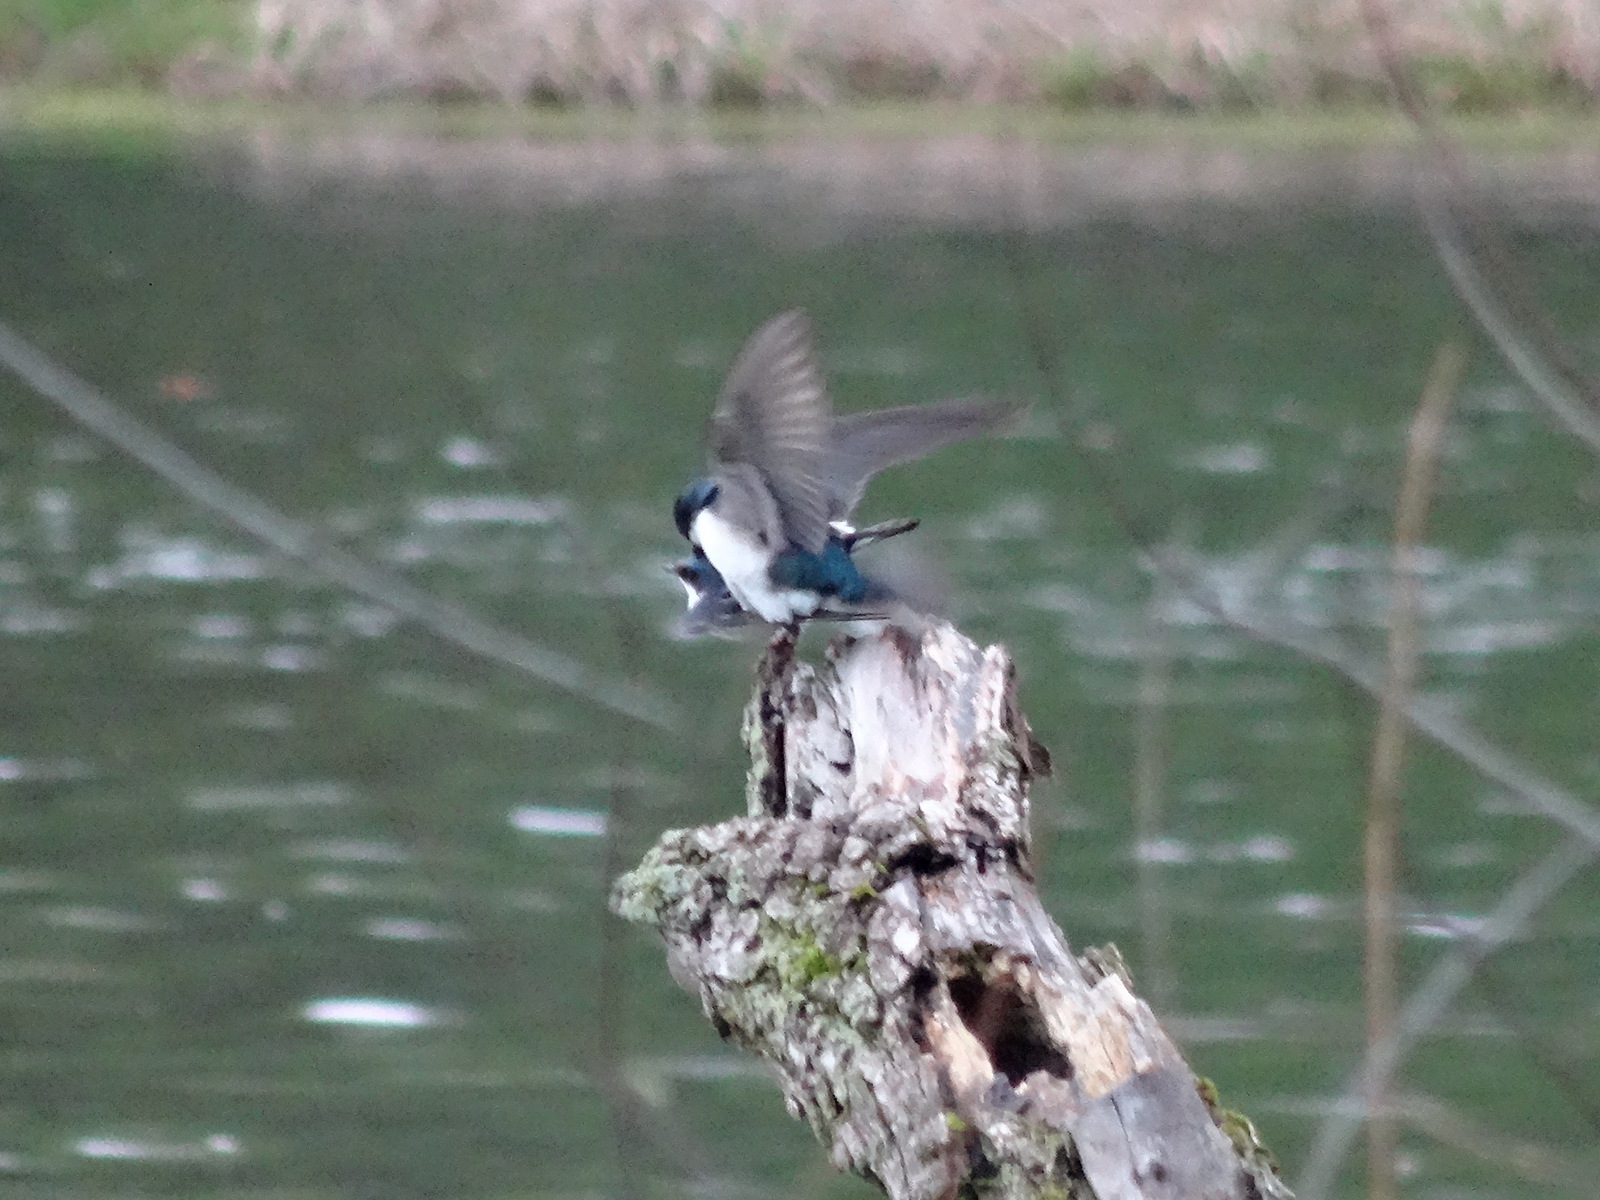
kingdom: Animalia
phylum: Chordata
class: Aves
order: Passeriformes
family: Hirundinidae
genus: Tachycineta
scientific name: Tachycineta bicolor
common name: Tree swallow
